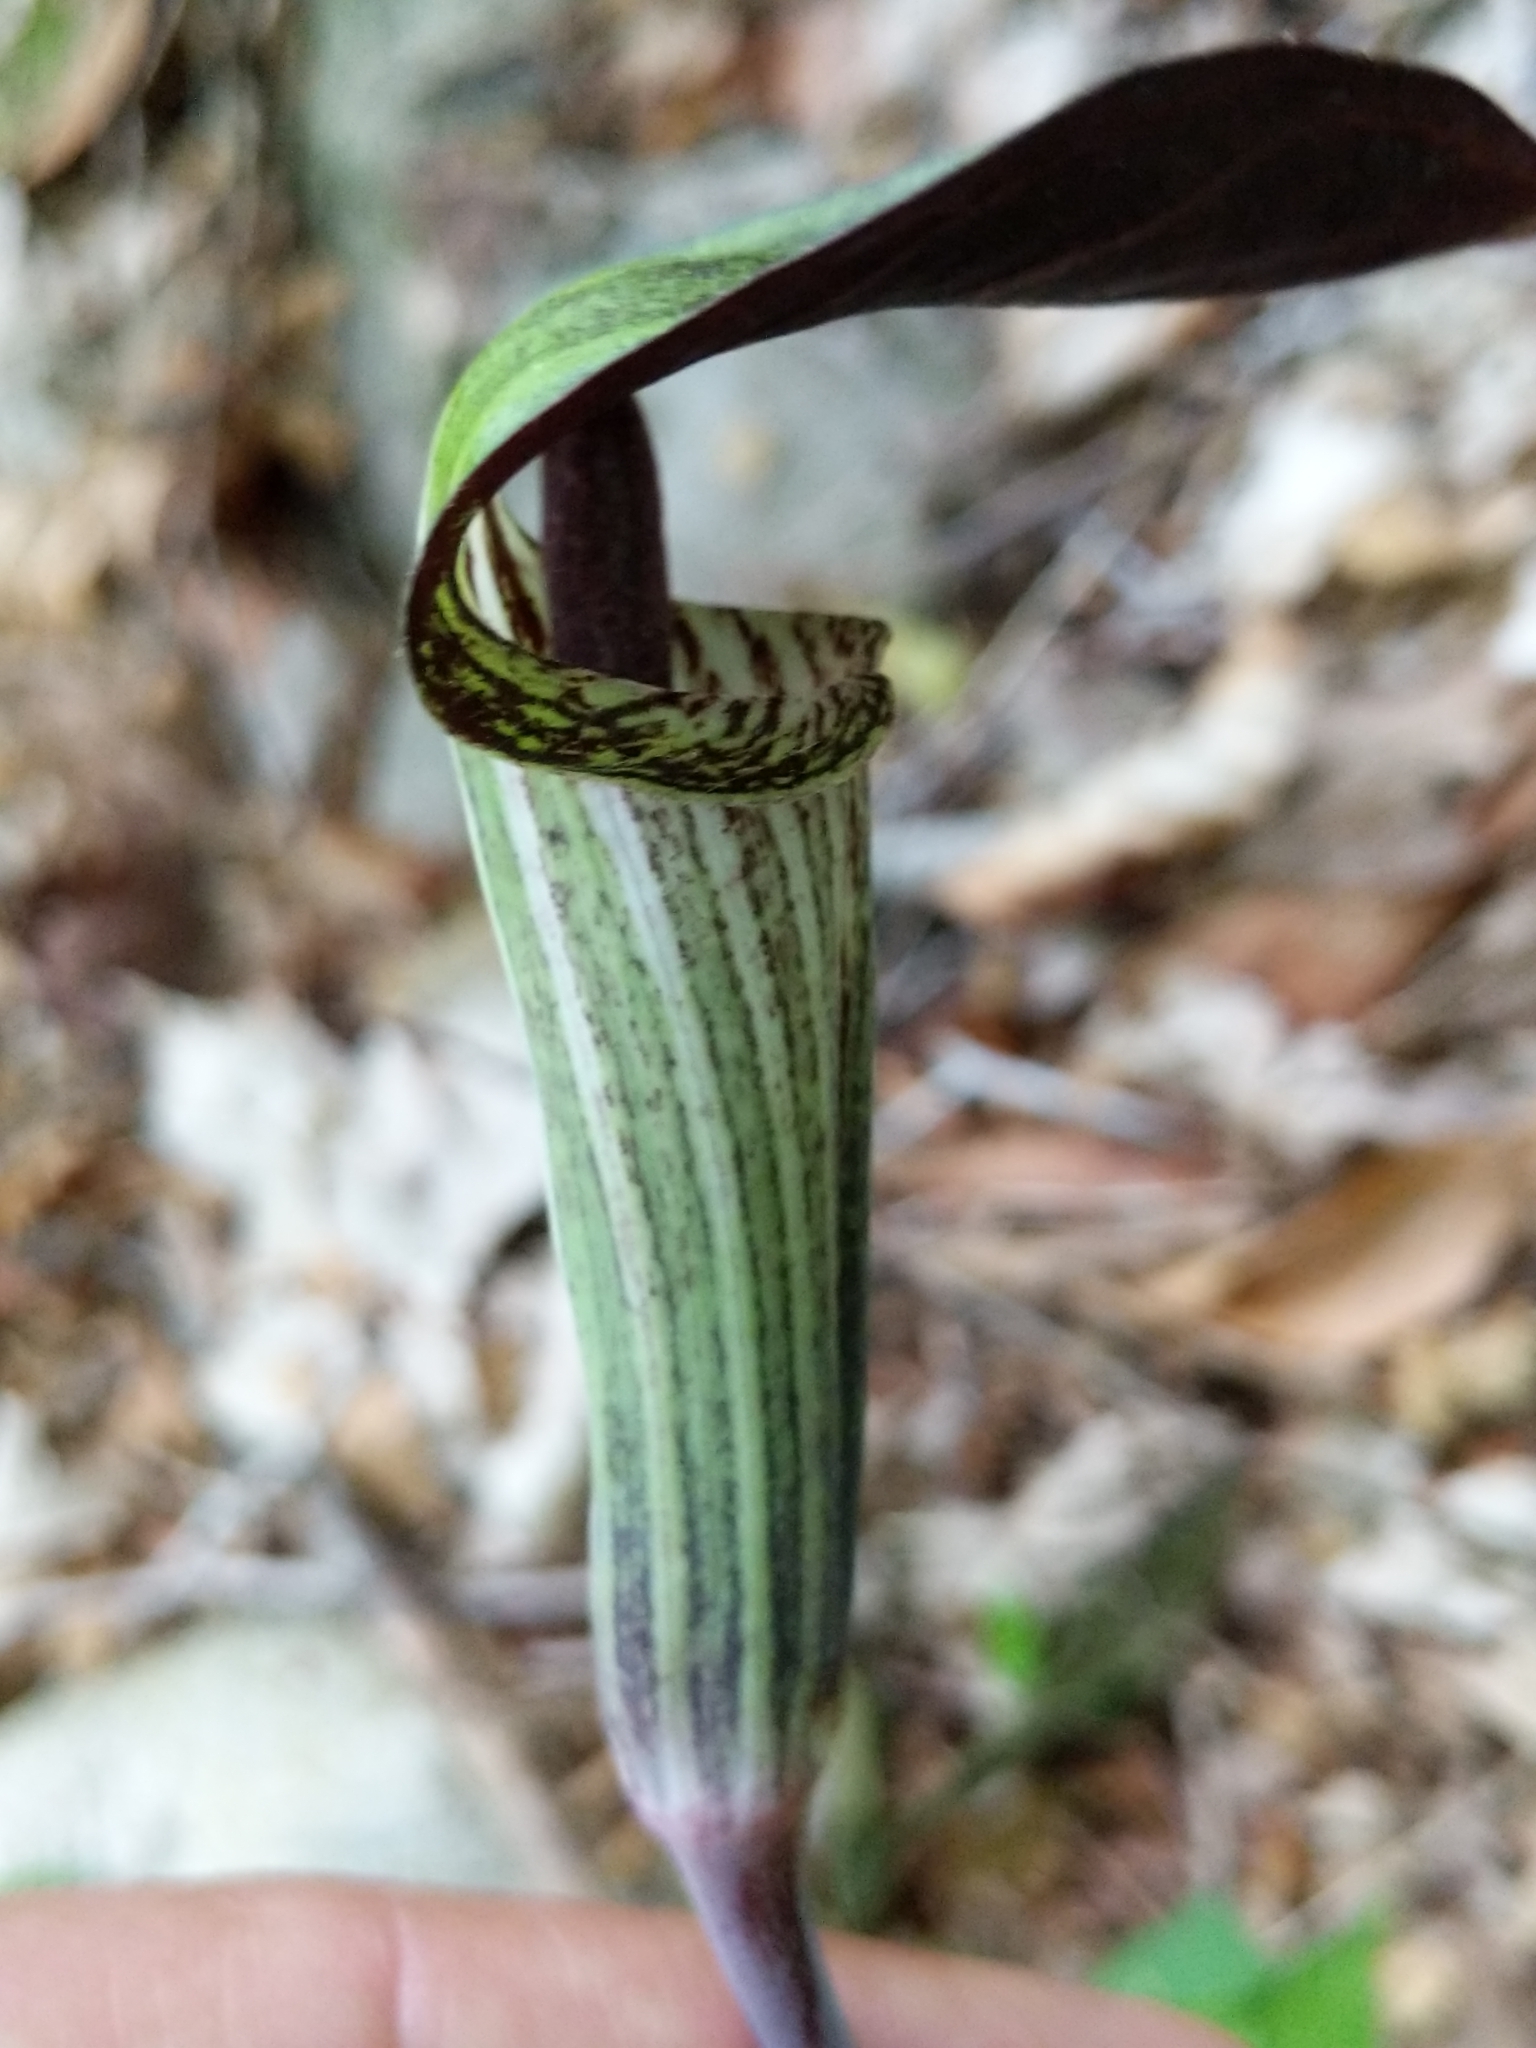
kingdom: Plantae
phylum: Tracheophyta
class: Liliopsida
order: Alismatales
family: Araceae
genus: Arisaema
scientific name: Arisaema triphyllum
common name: Jack-in-the-pulpit
